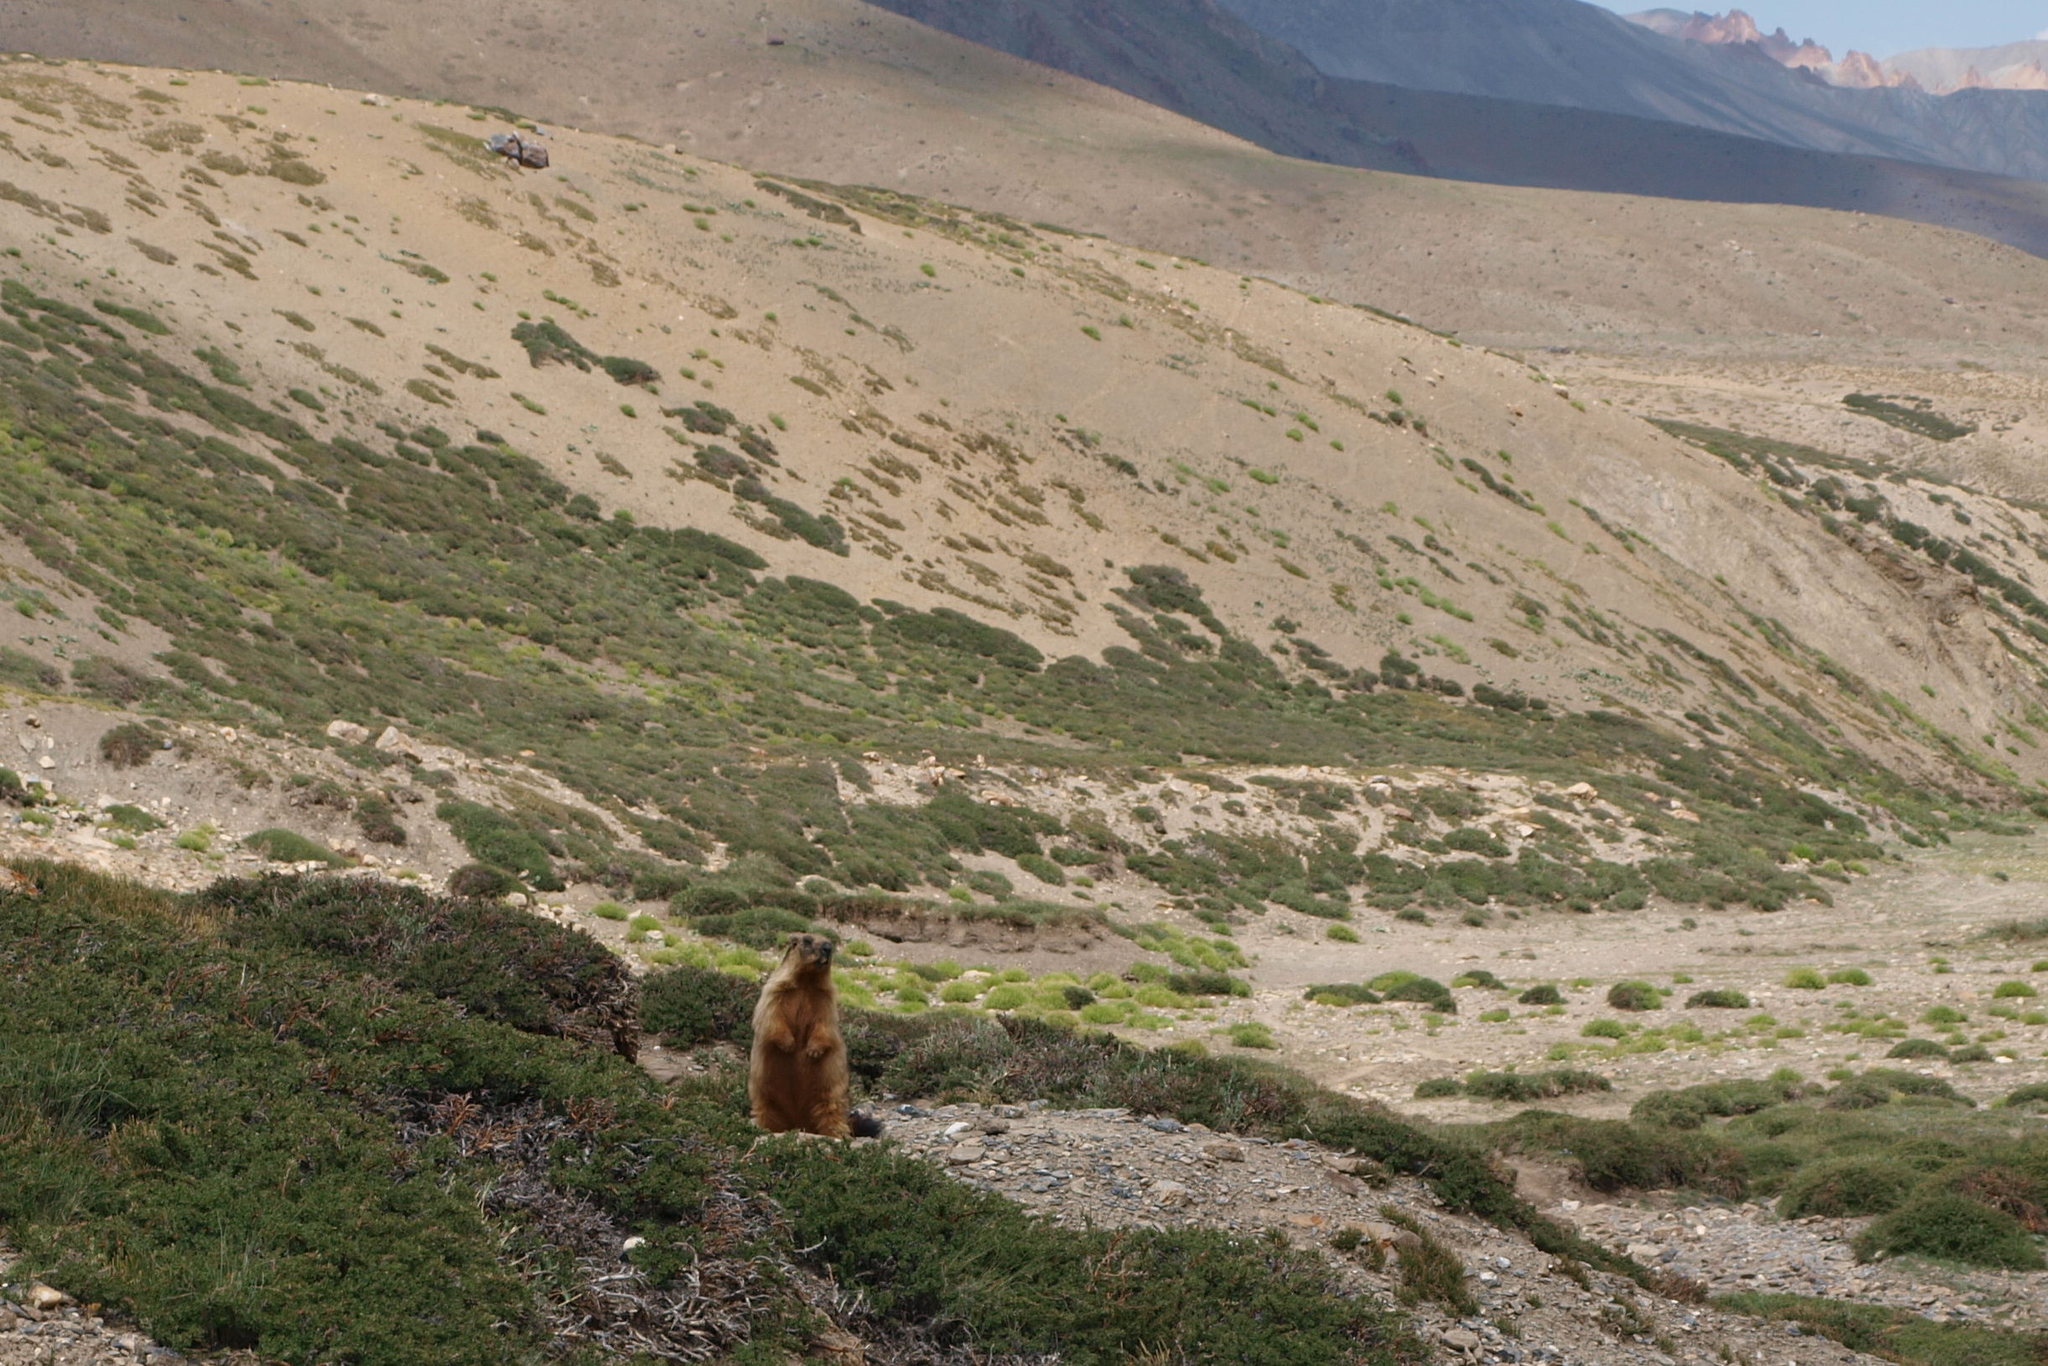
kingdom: Animalia
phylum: Chordata
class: Mammalia
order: Rodentia
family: Sciuridae
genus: Marmota
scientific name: Marmota himalayana
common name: Himalayan marmot
